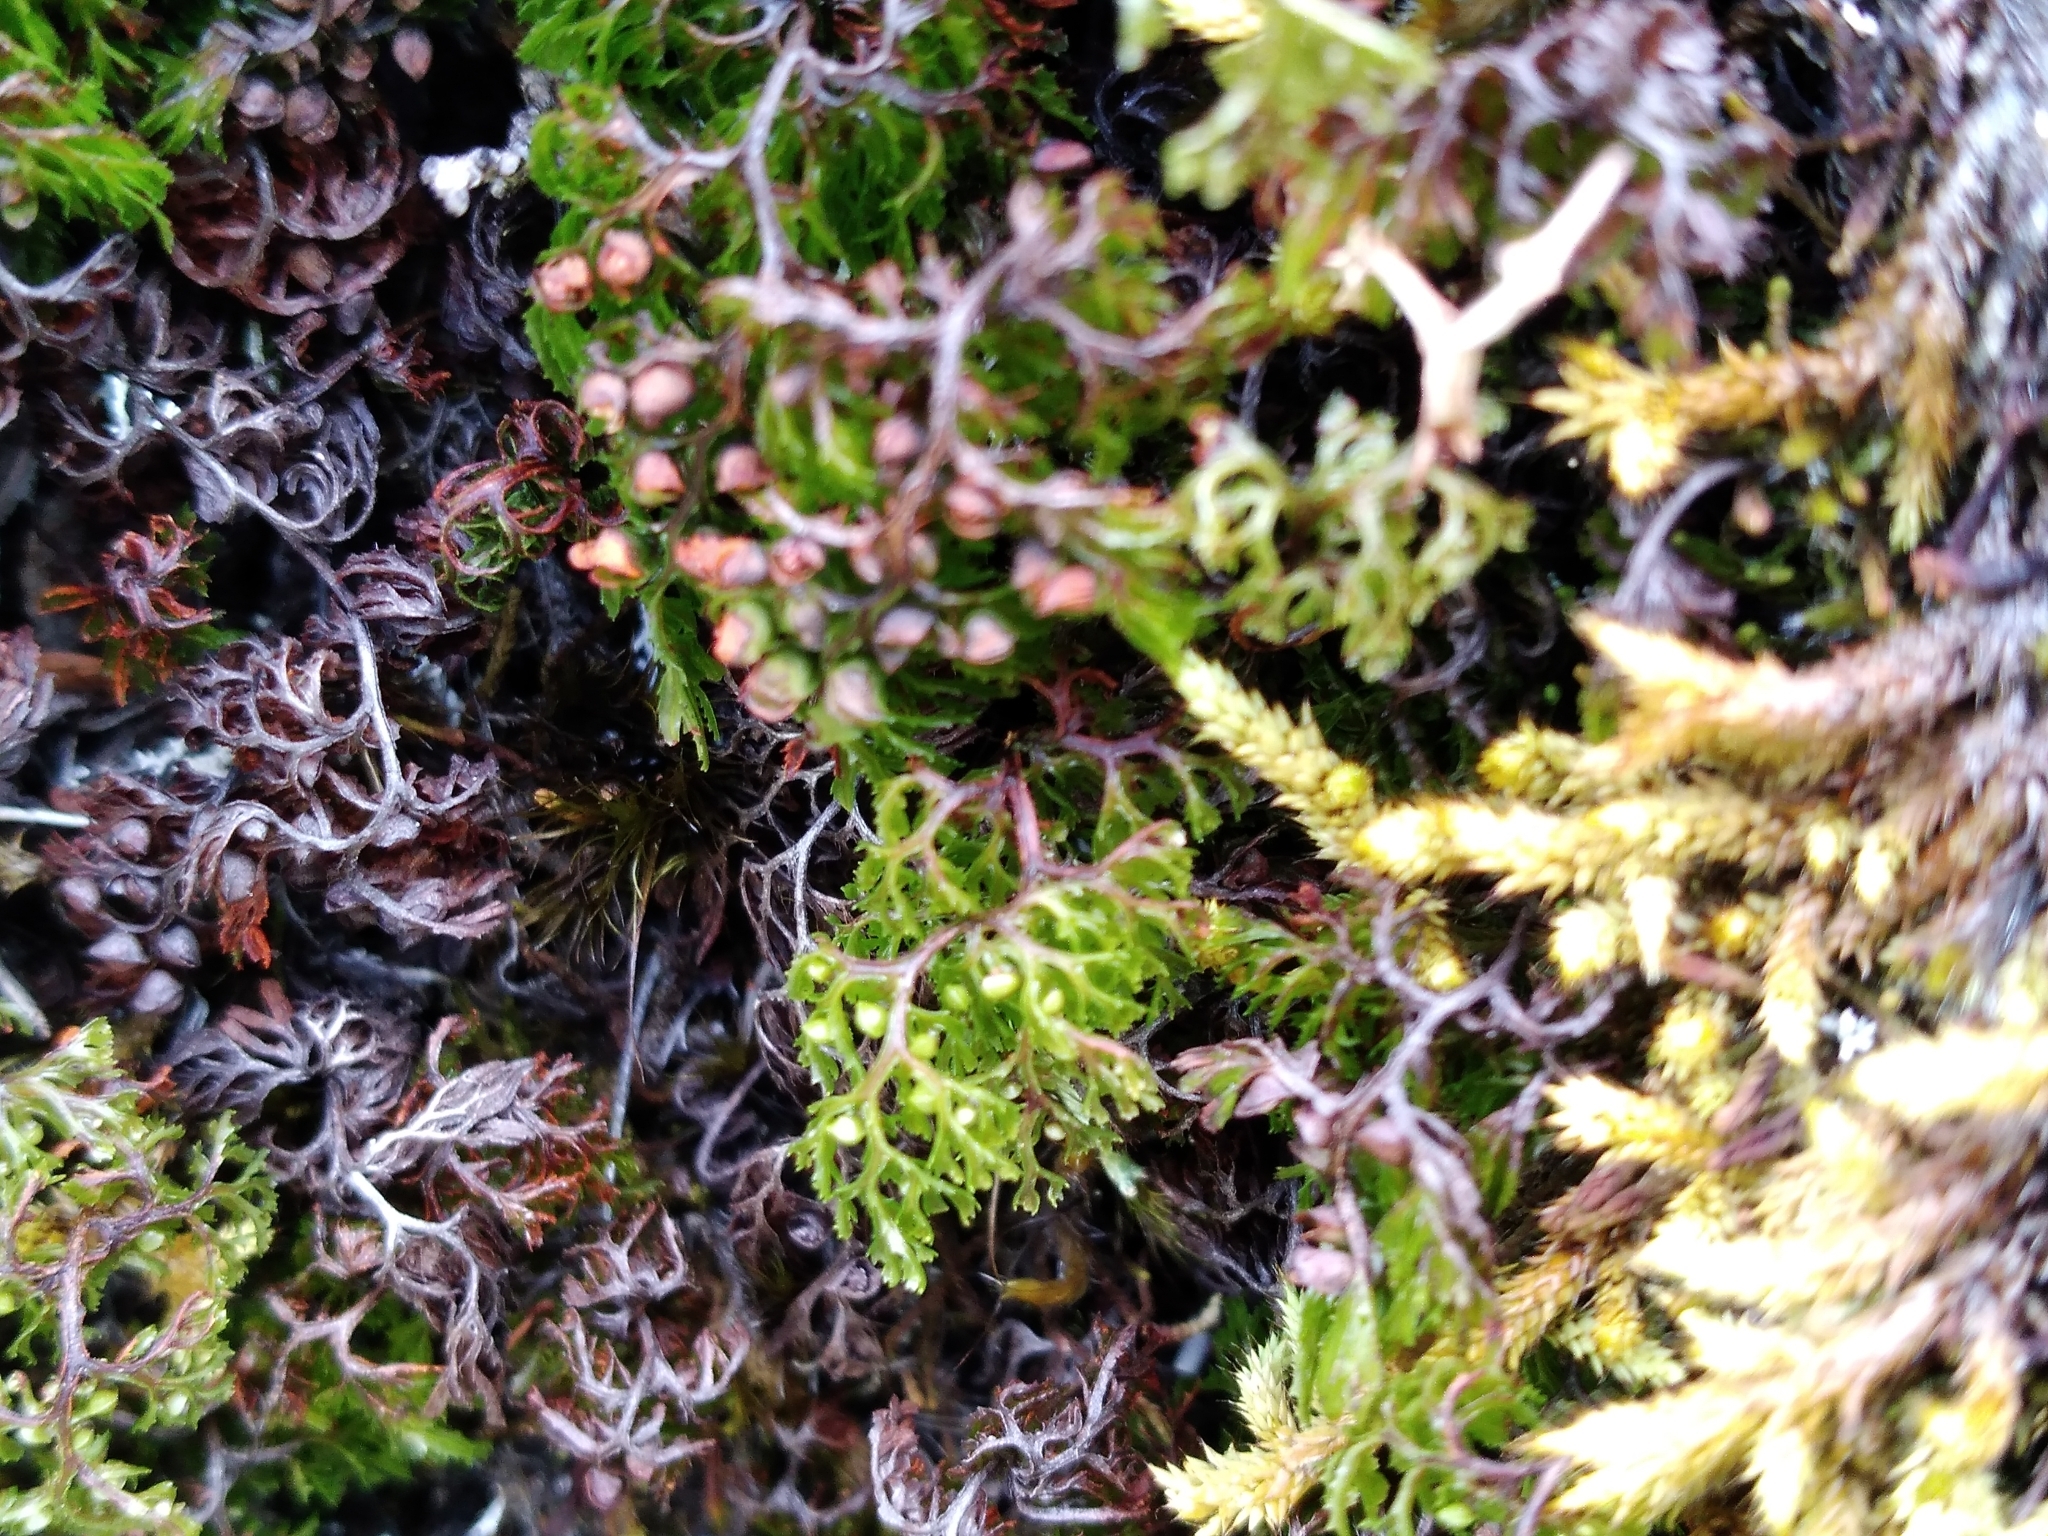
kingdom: Plantae
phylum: Tracheophyta
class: Polypodiopsida
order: Hymenophyllales
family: Hymenophyllaceae
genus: Hymenophyllum
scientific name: Hymenophyllum multifidum
